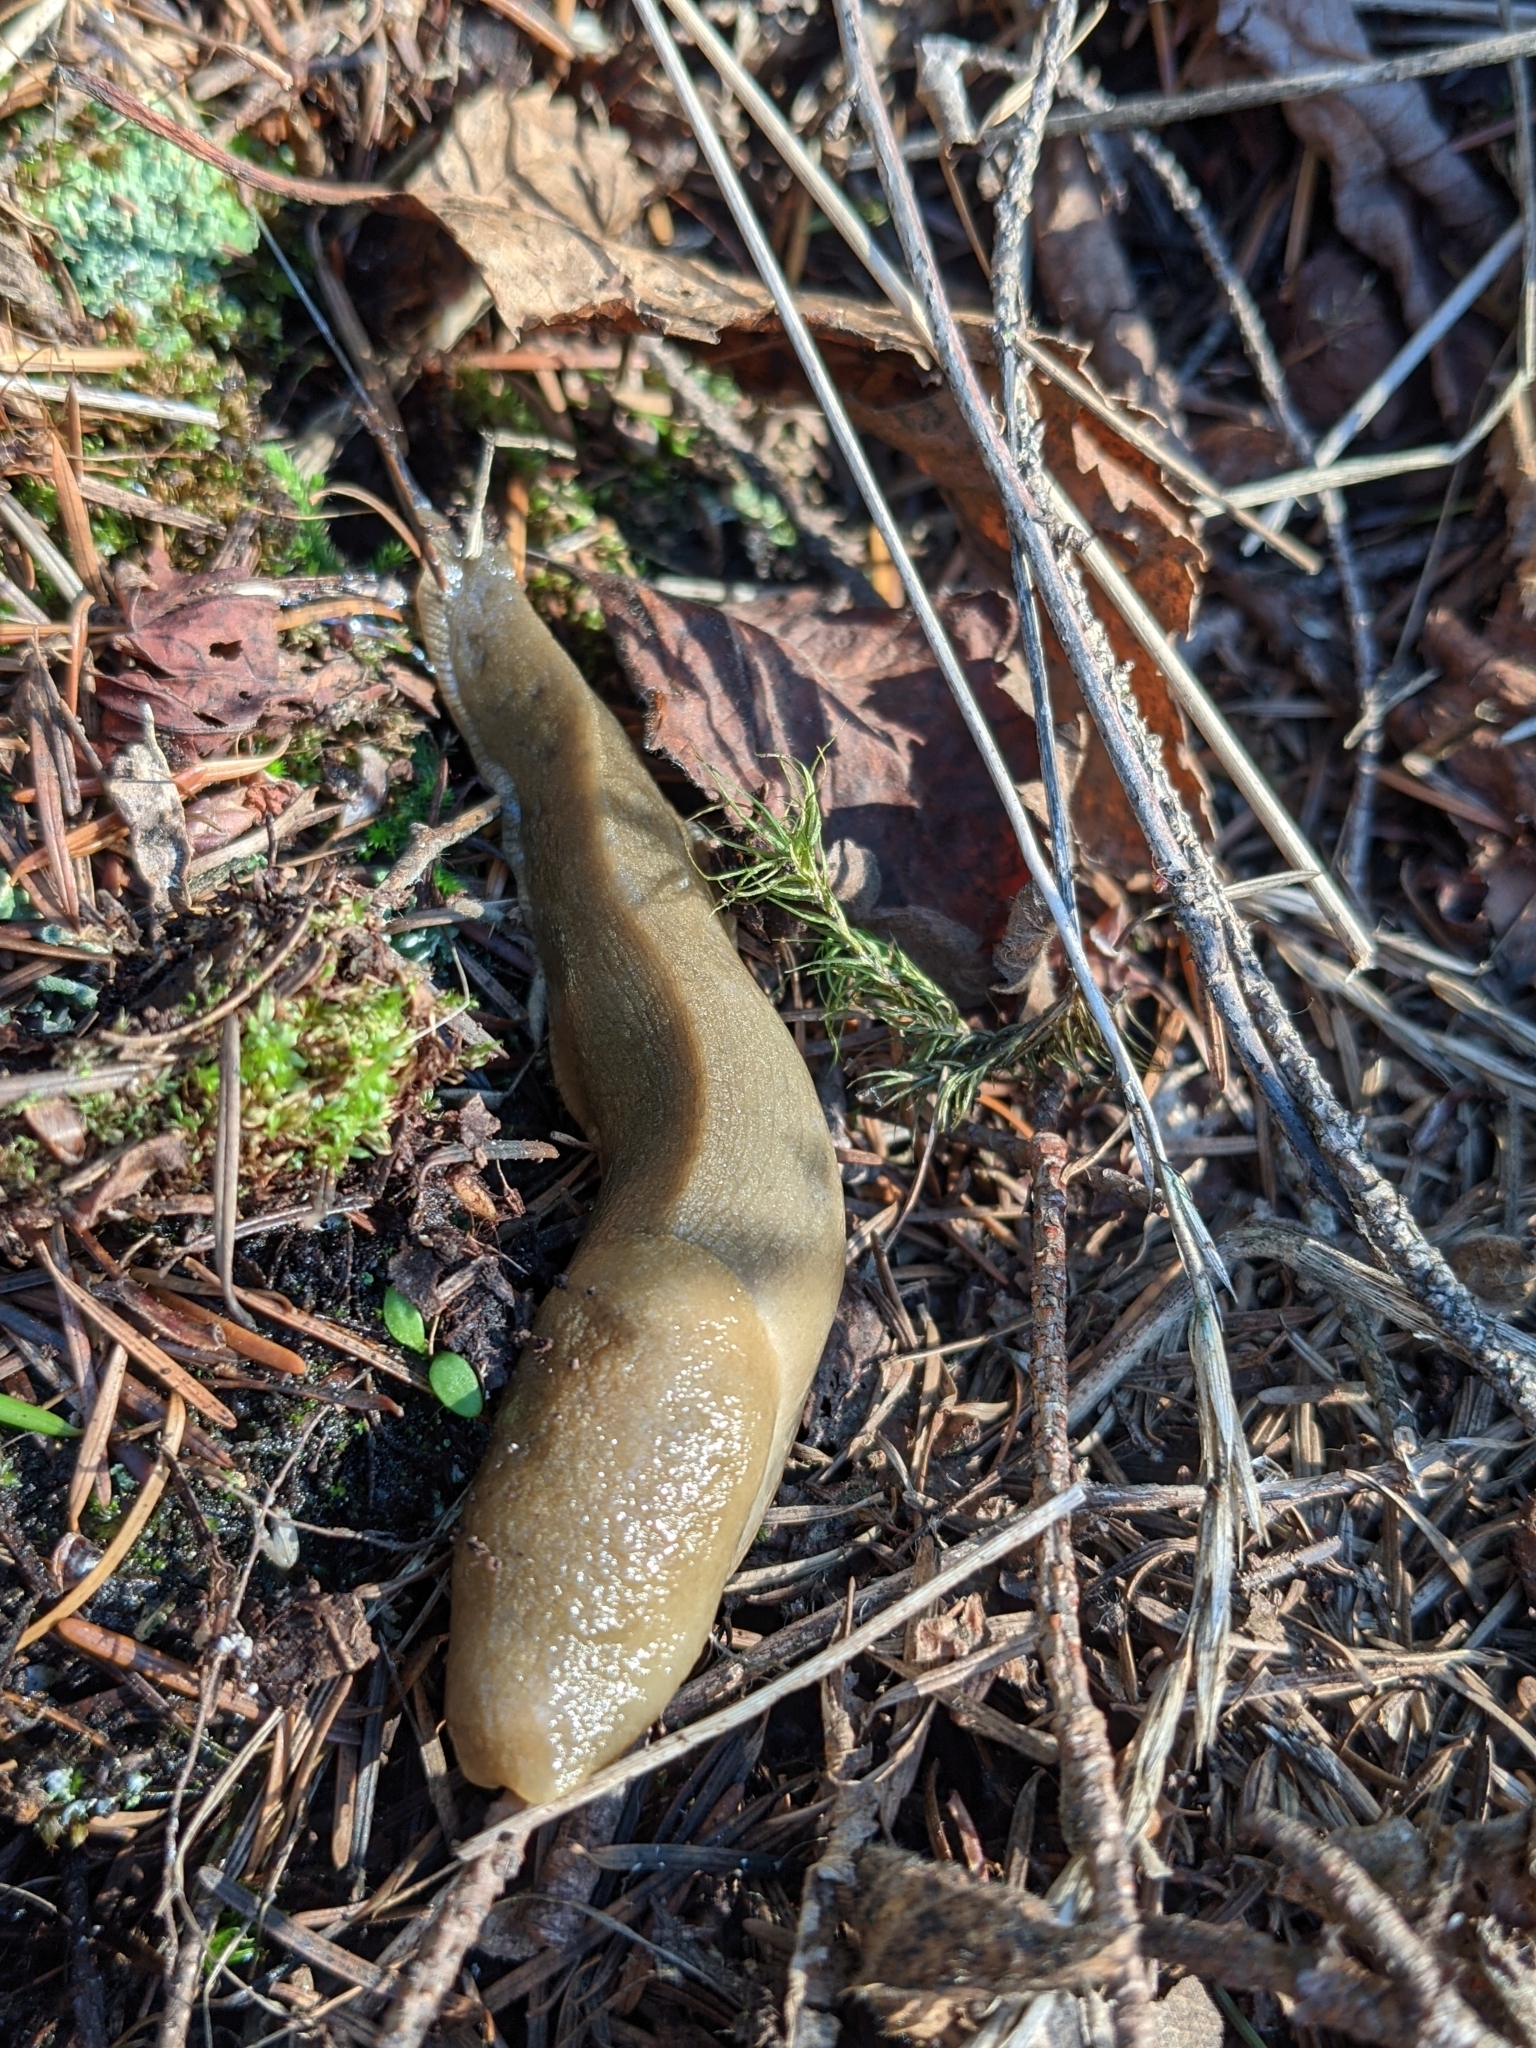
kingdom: Animalia
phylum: Mollusca
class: Gastropoda
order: Stylommatophora
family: Ariolimacidae
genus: Ariolimax
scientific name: Ariolimax columbianus
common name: Pacific banana slug
